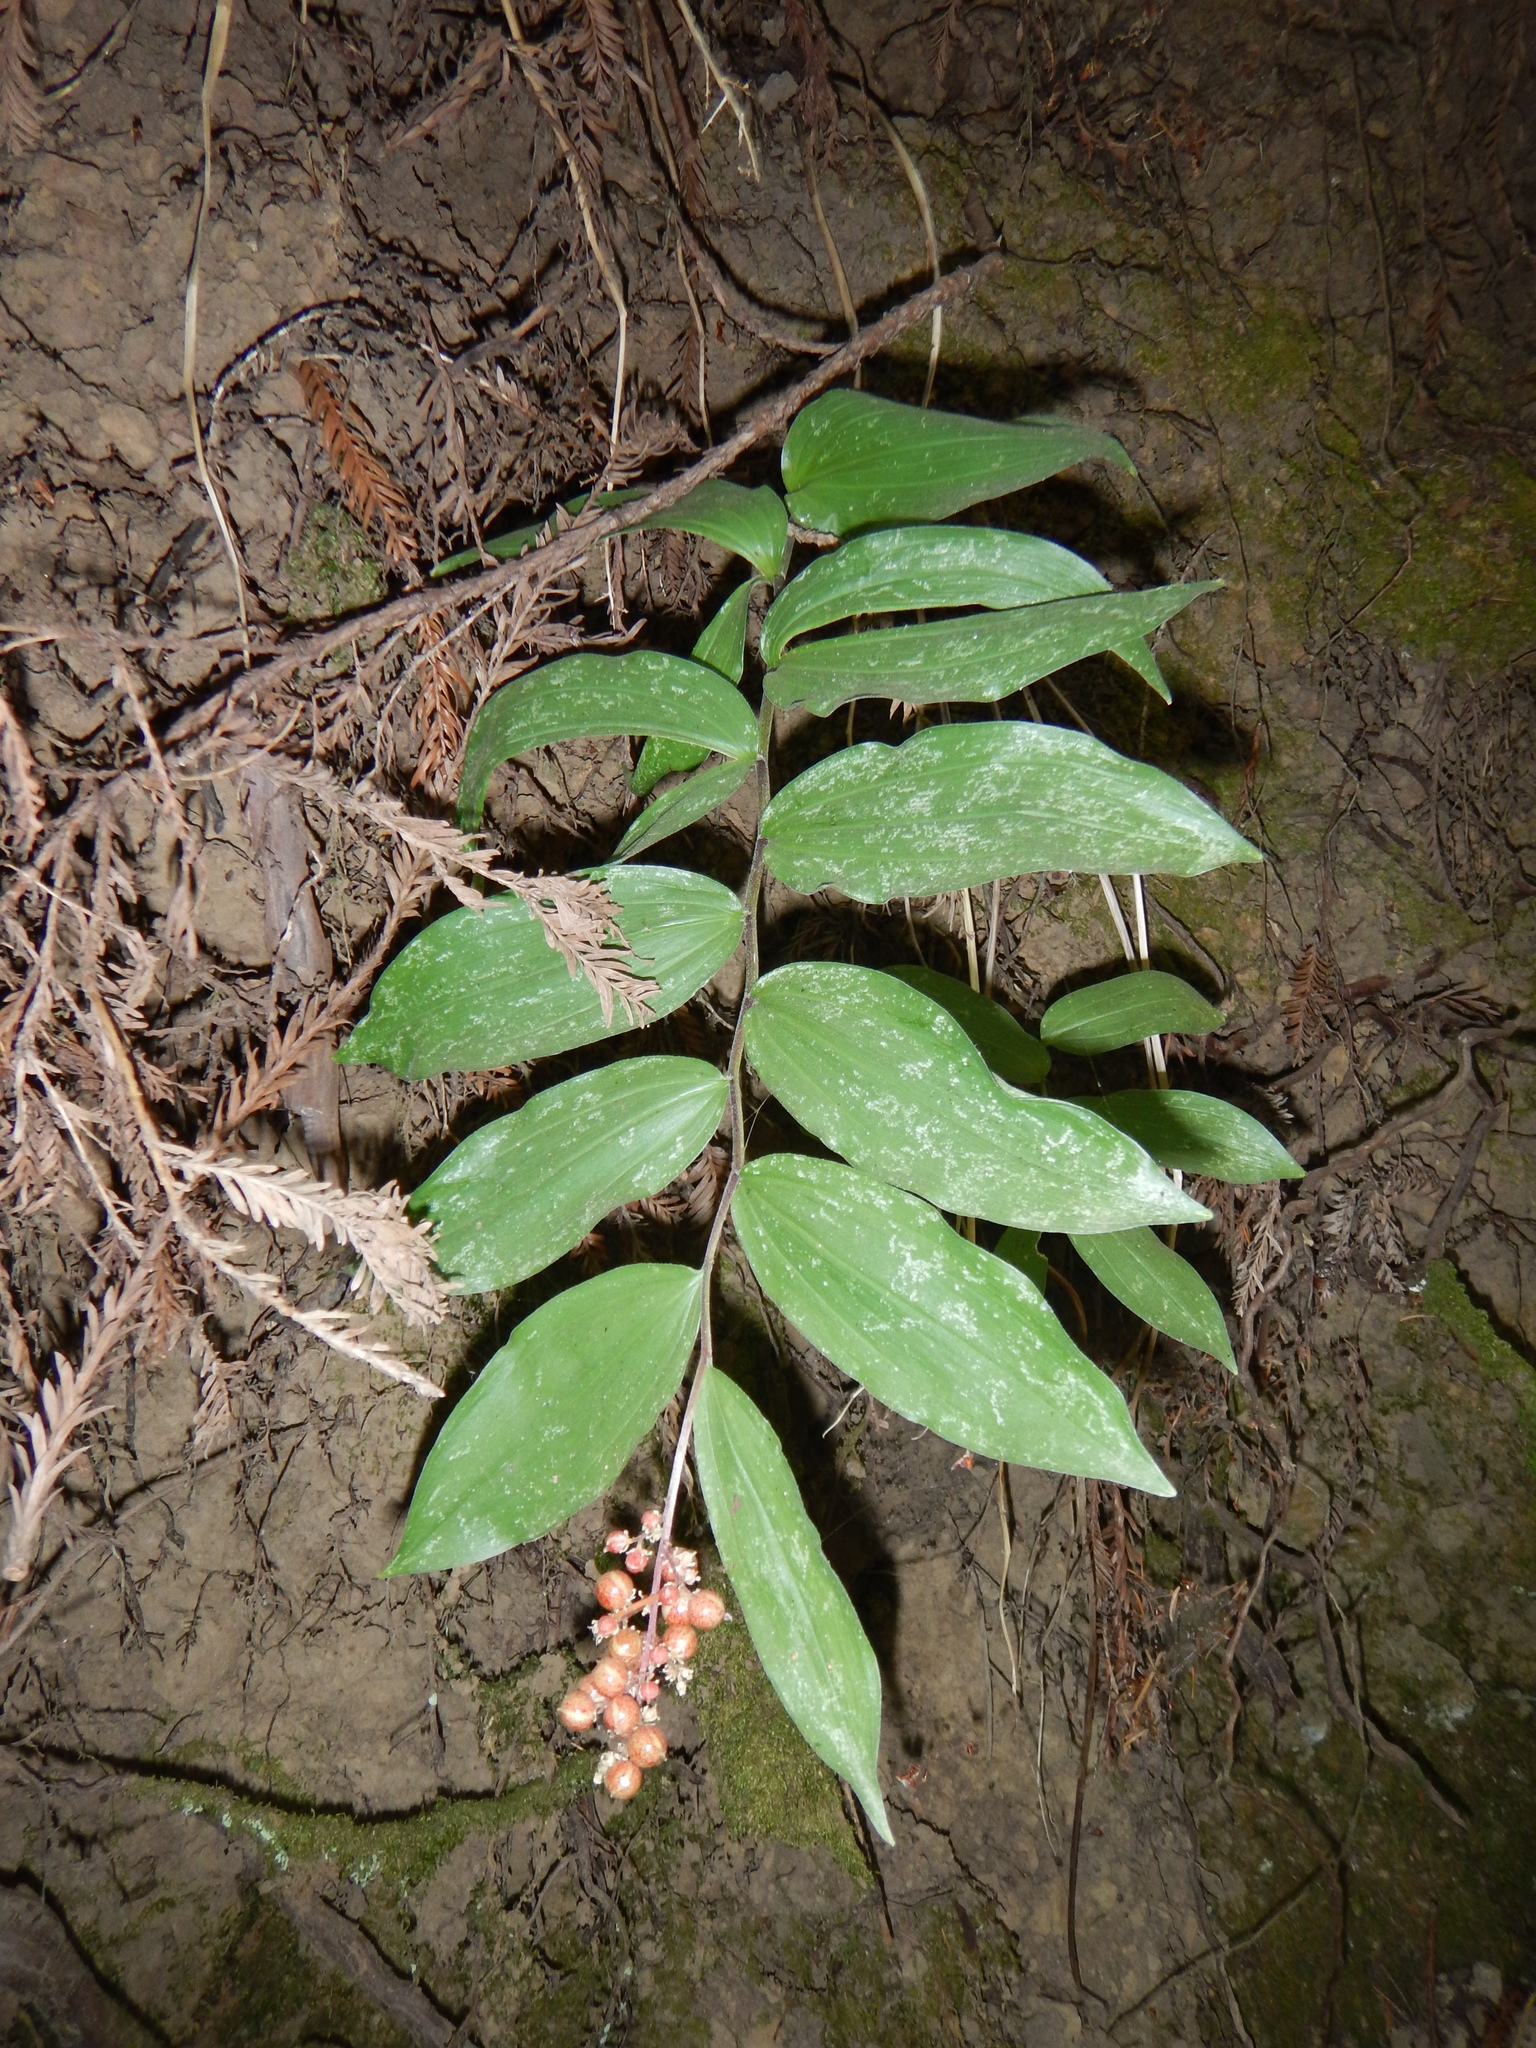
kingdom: Plantae
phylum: Tracheophyta
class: Liliopsida
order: Asparagales
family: Asparagaceae
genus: Maianthemum
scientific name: Maianthemum racemosum
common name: False spikenard
